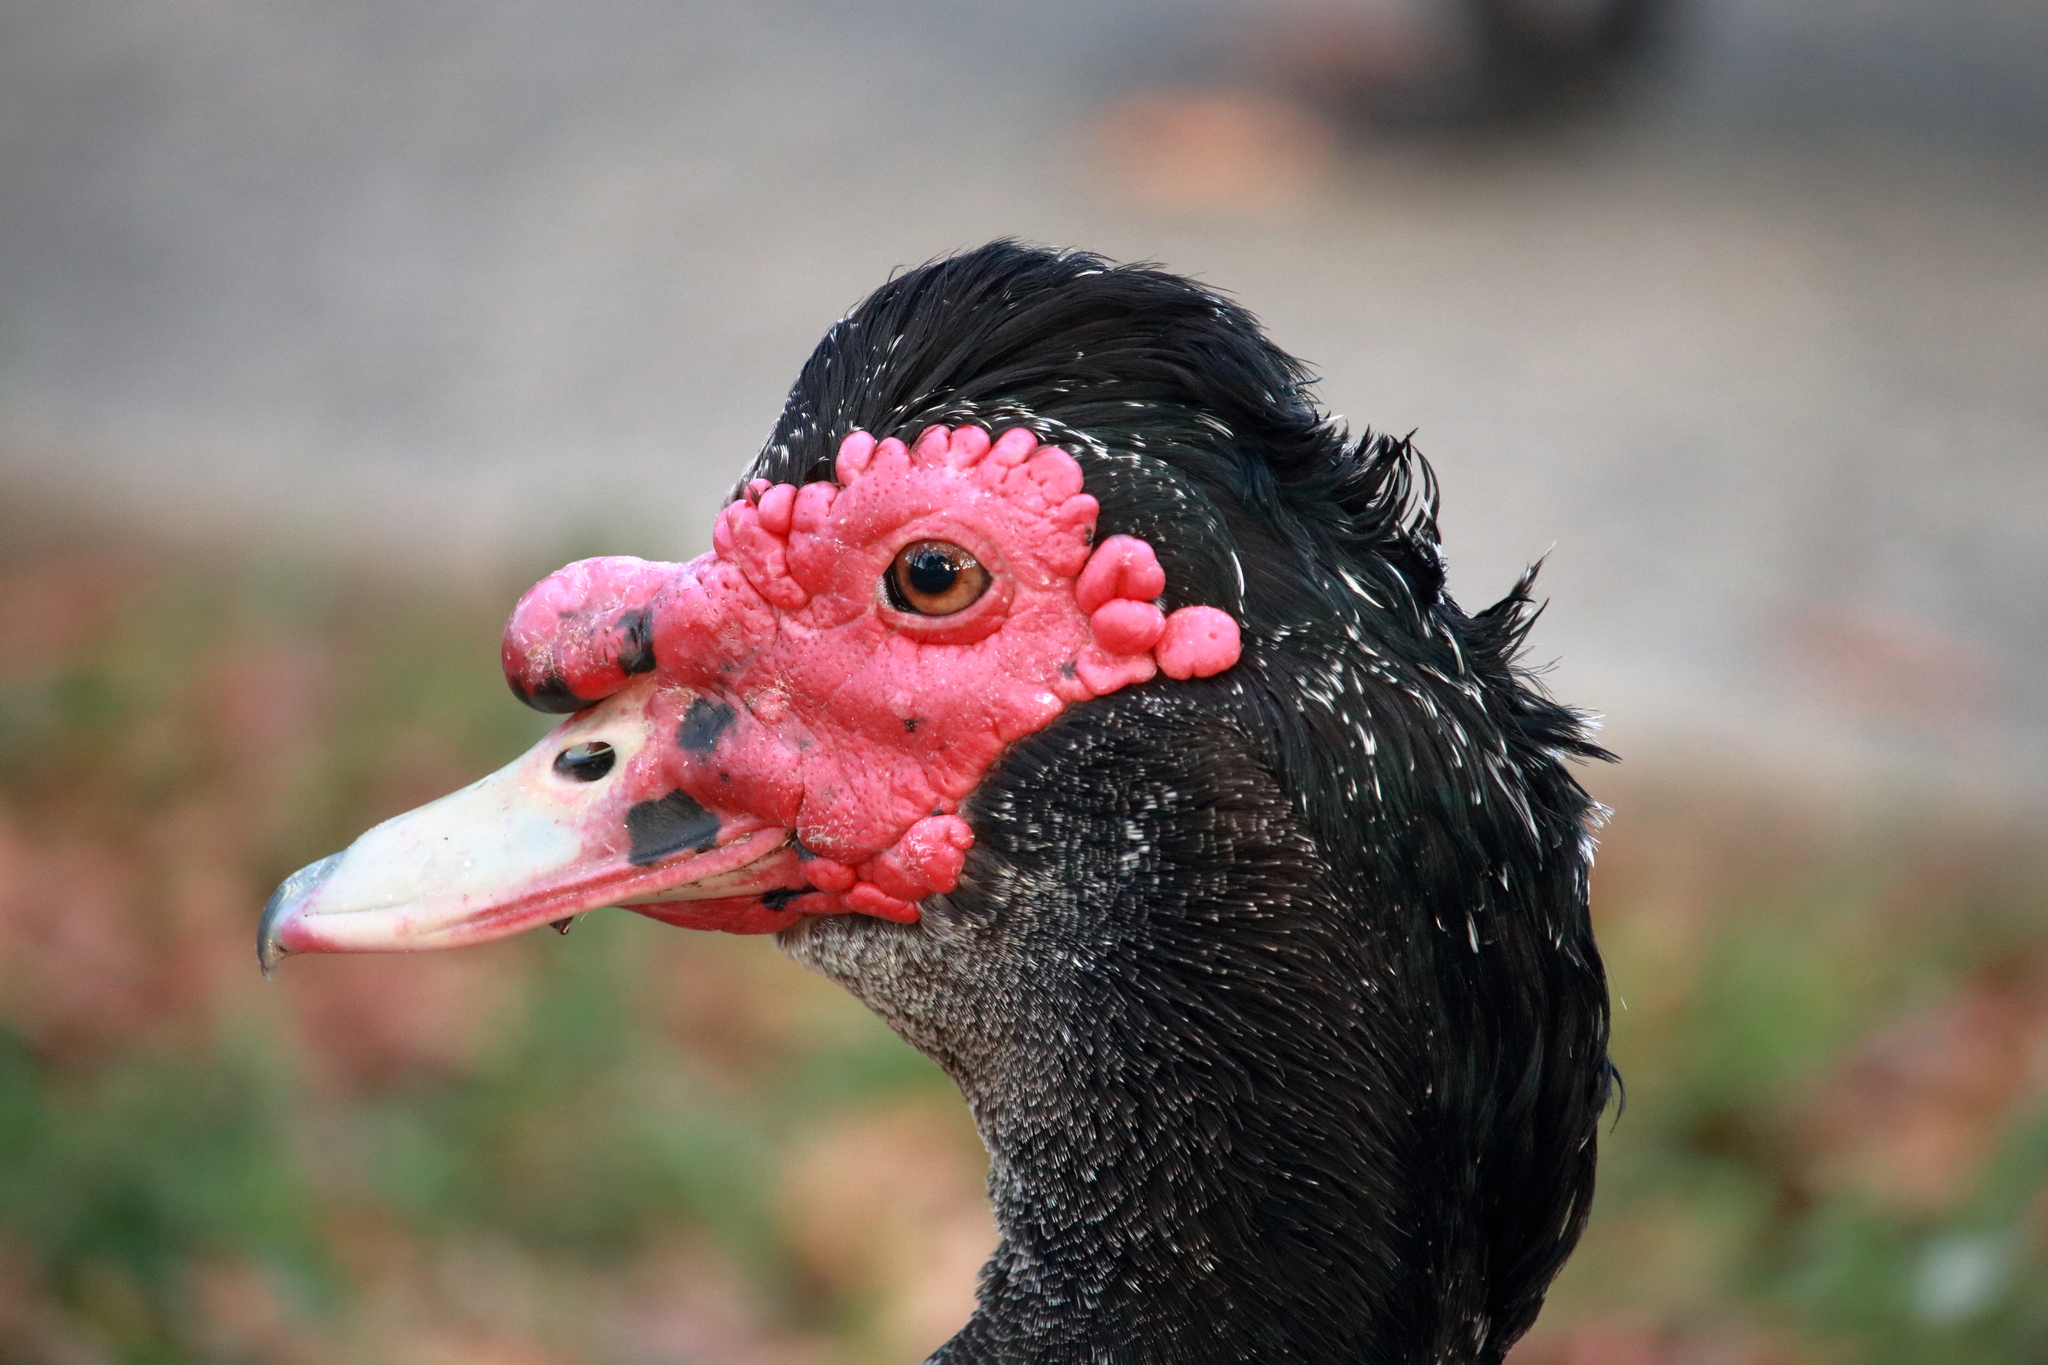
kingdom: Animalia
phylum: Chordata
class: Aves
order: Anseriformes
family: Anatidae
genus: Cairina
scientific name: Cairina moschata
